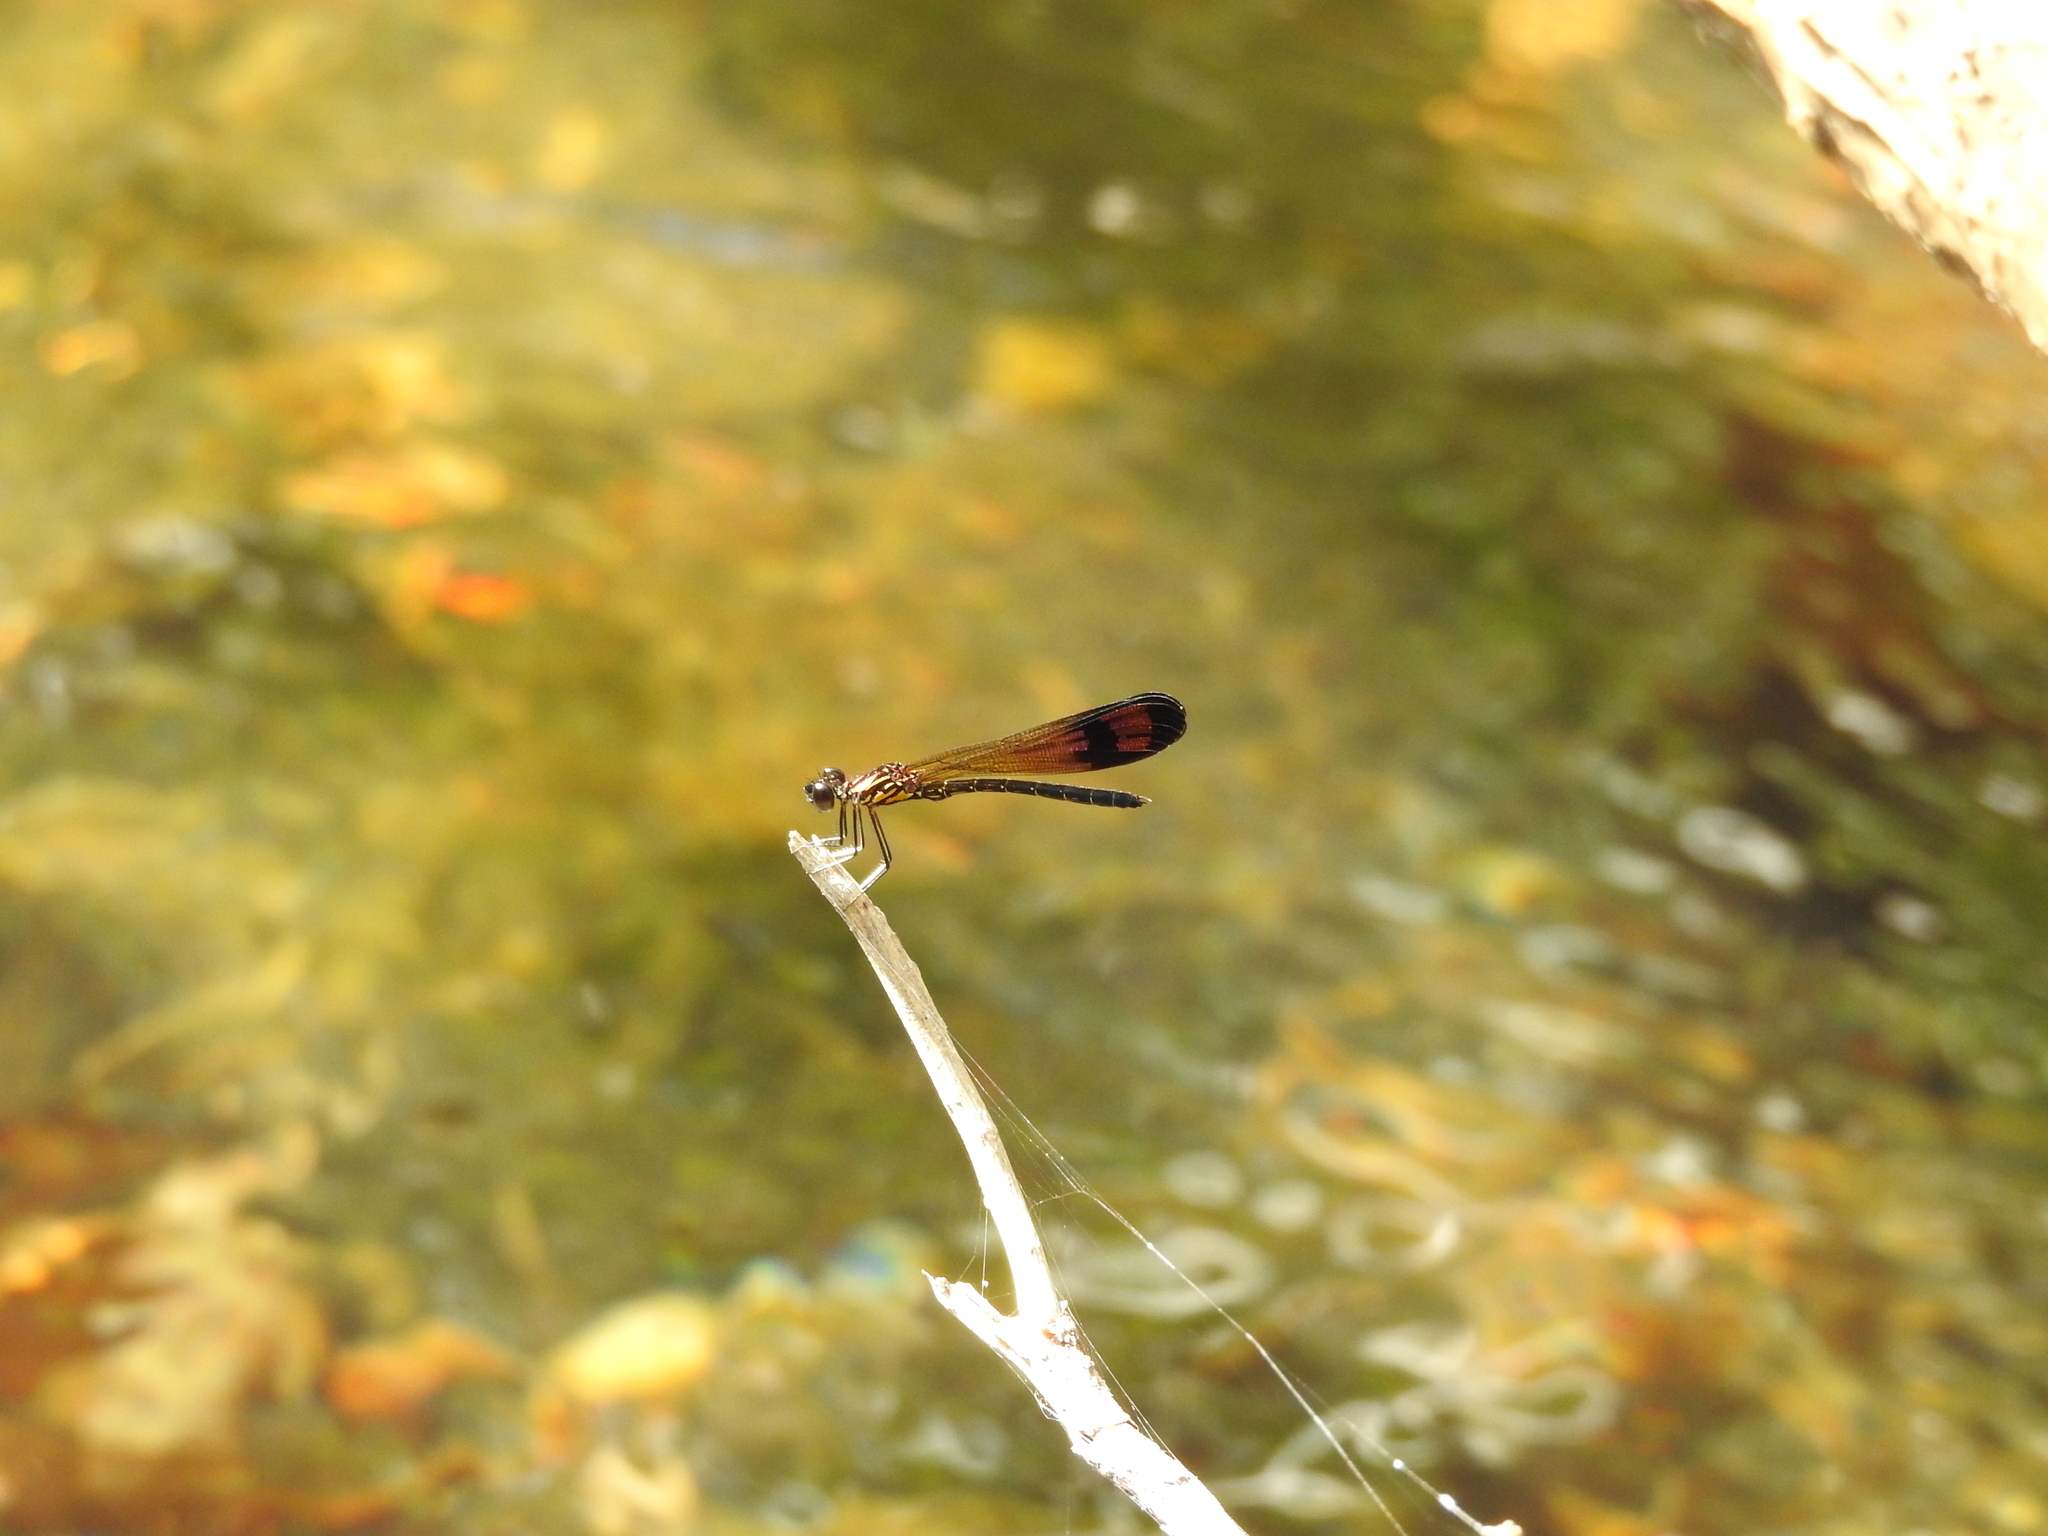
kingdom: Animalia
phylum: Arthropoda
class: Insecta
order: Odonata
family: Chlorocyphidae
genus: Heliocypha
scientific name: Heliocypha bisignata
